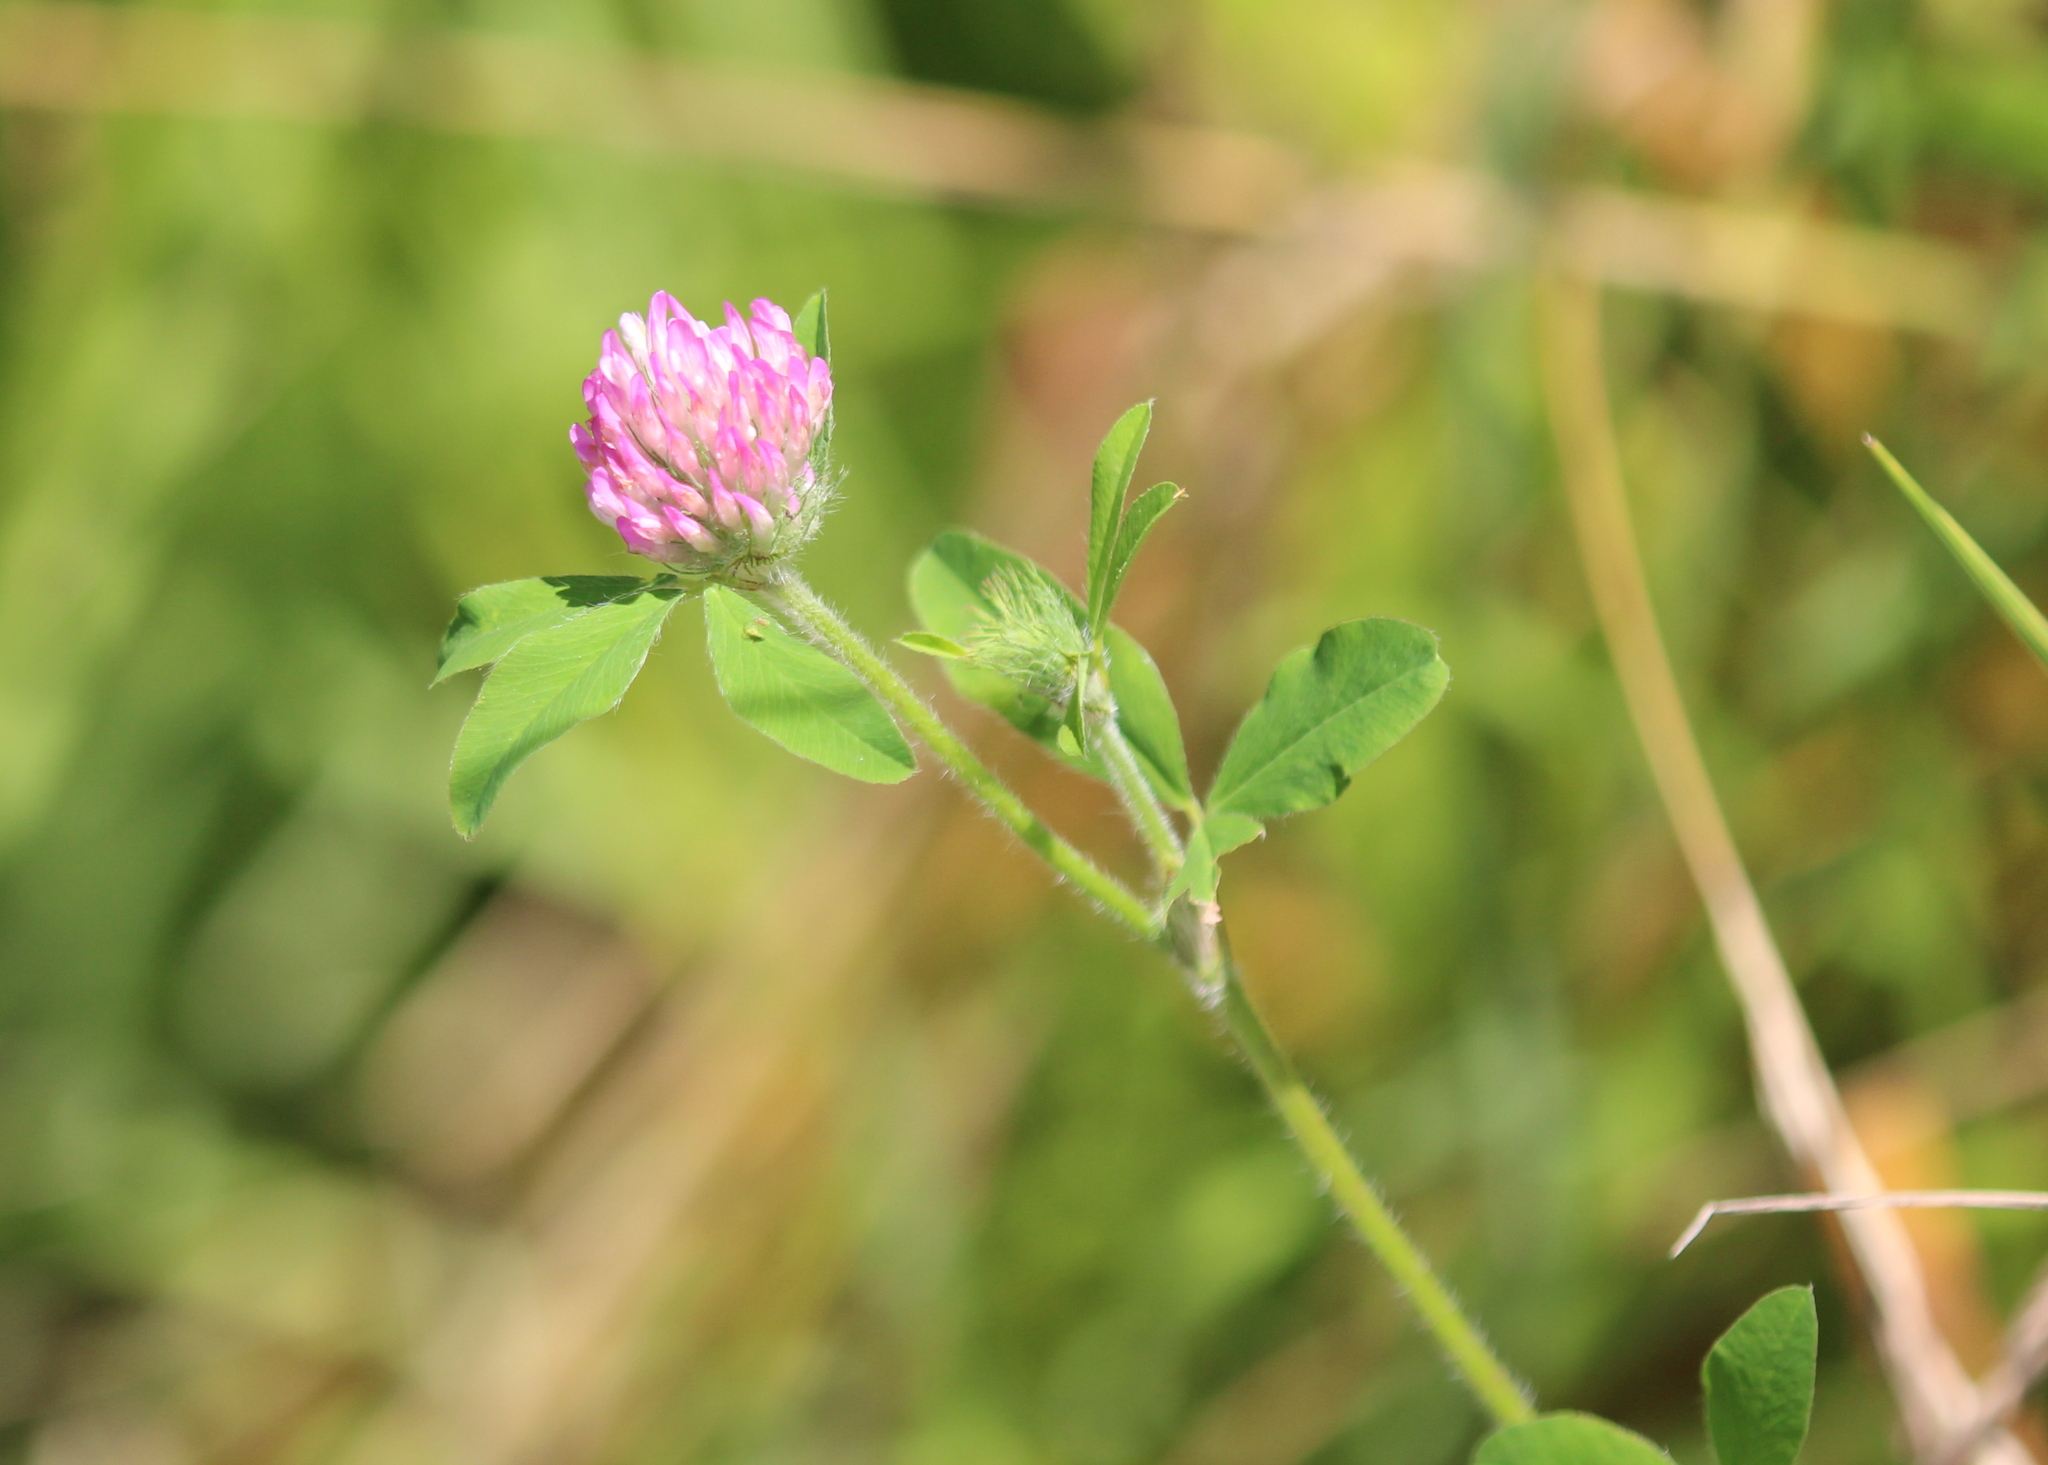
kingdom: Plantae
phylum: Tracheophyta
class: Magnoliopsida
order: Fabales
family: Fabaceae
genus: Trifolium
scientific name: Trifolium pratense
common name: Red clover
